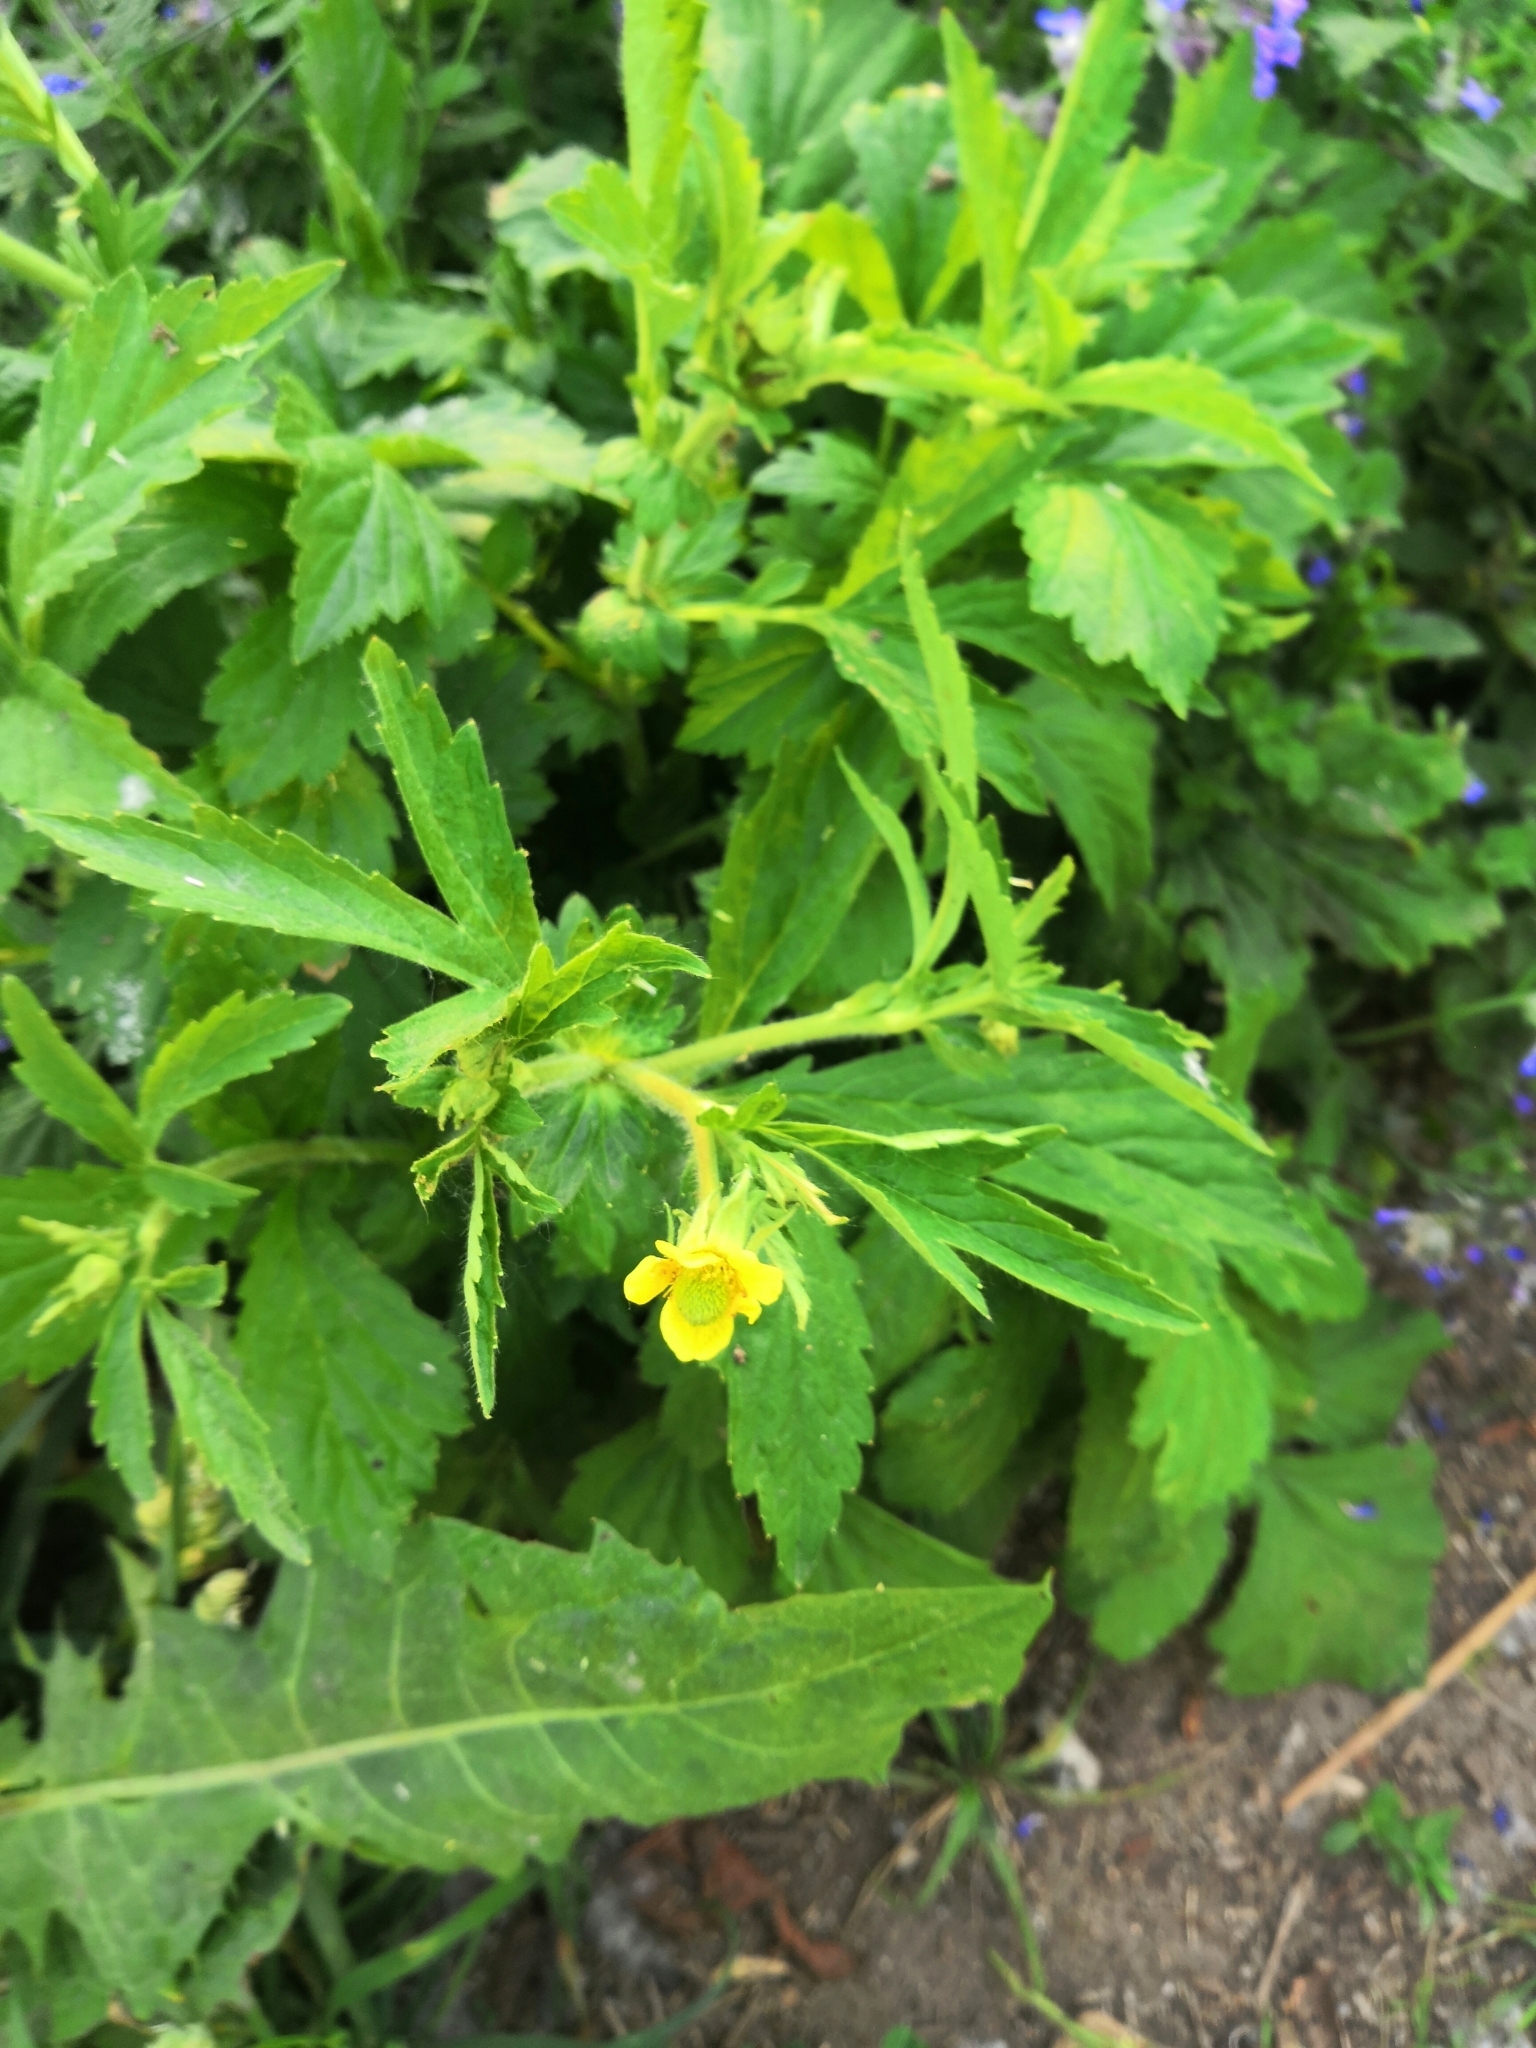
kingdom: Plantae
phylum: Tracheophyta
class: Magnoliopsida
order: Rosales
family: Rosaceae
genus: Geum
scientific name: Geum aleppicum
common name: Yellow avens
